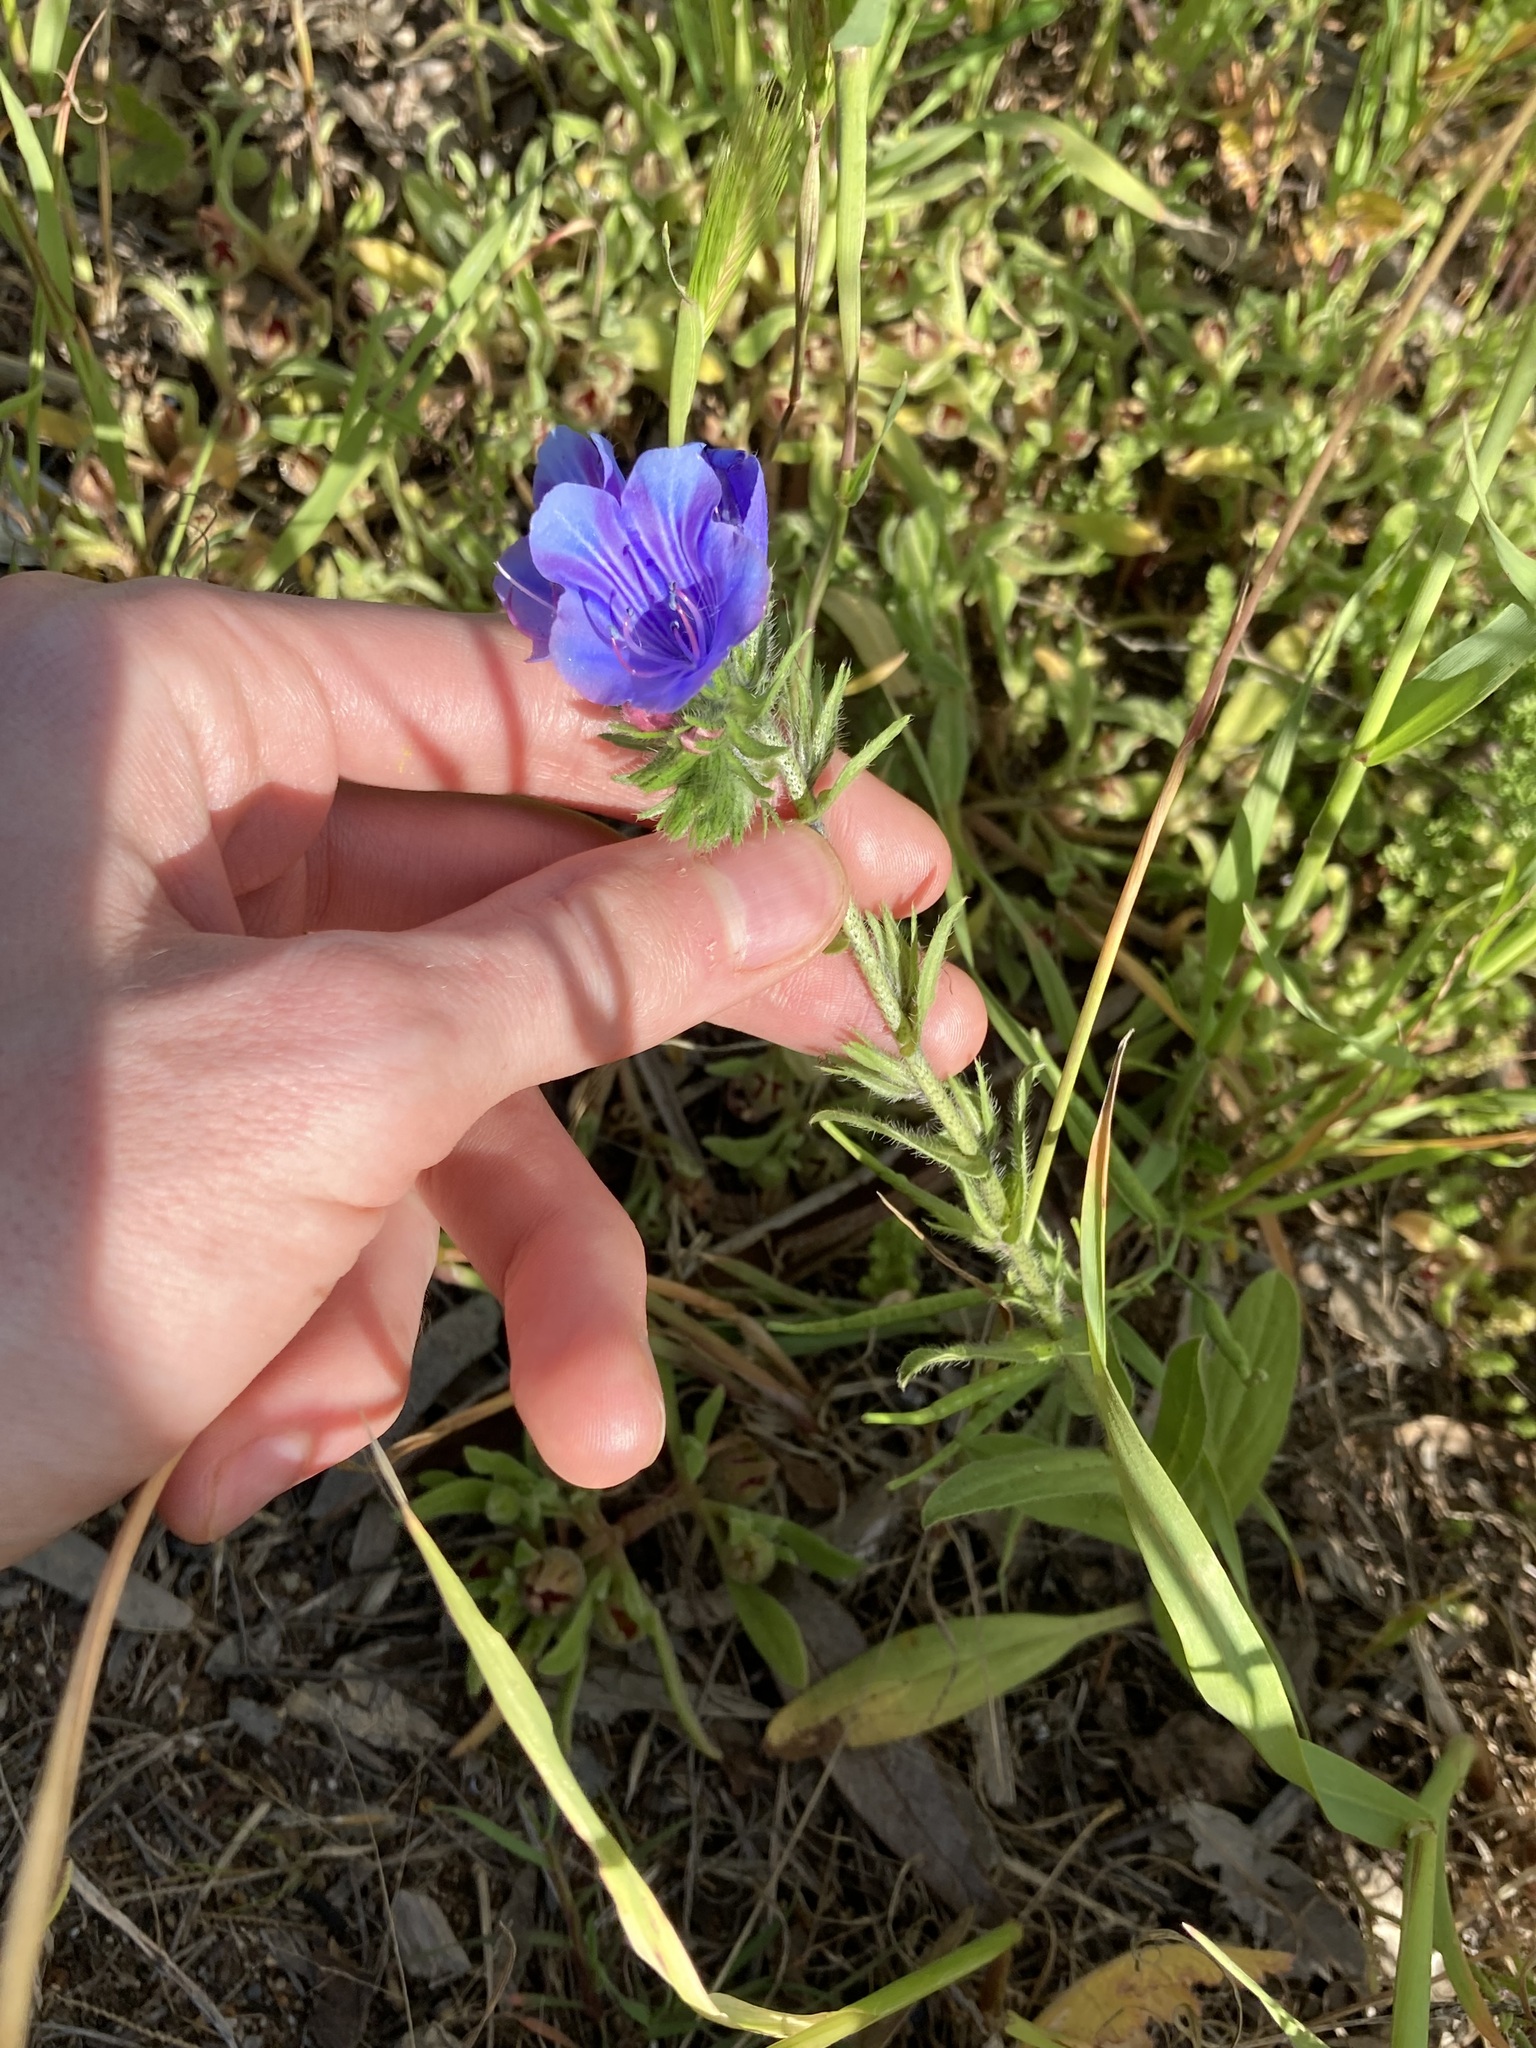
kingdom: Plantae
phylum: Tracheophyta
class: Magnoliopsida
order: Boraginales
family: Boraginaceae
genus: Echium
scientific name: Echium plantagineum
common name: Purple viper's-bugloss
